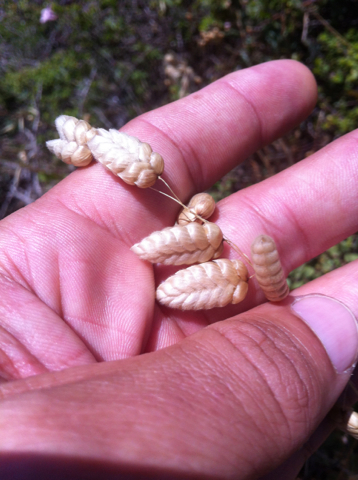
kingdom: Plantae
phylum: Tracheophyta
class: Liliopsida
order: Poales
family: Poaceae
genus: Briza
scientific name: Briza maxima
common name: Big quakinggrass
